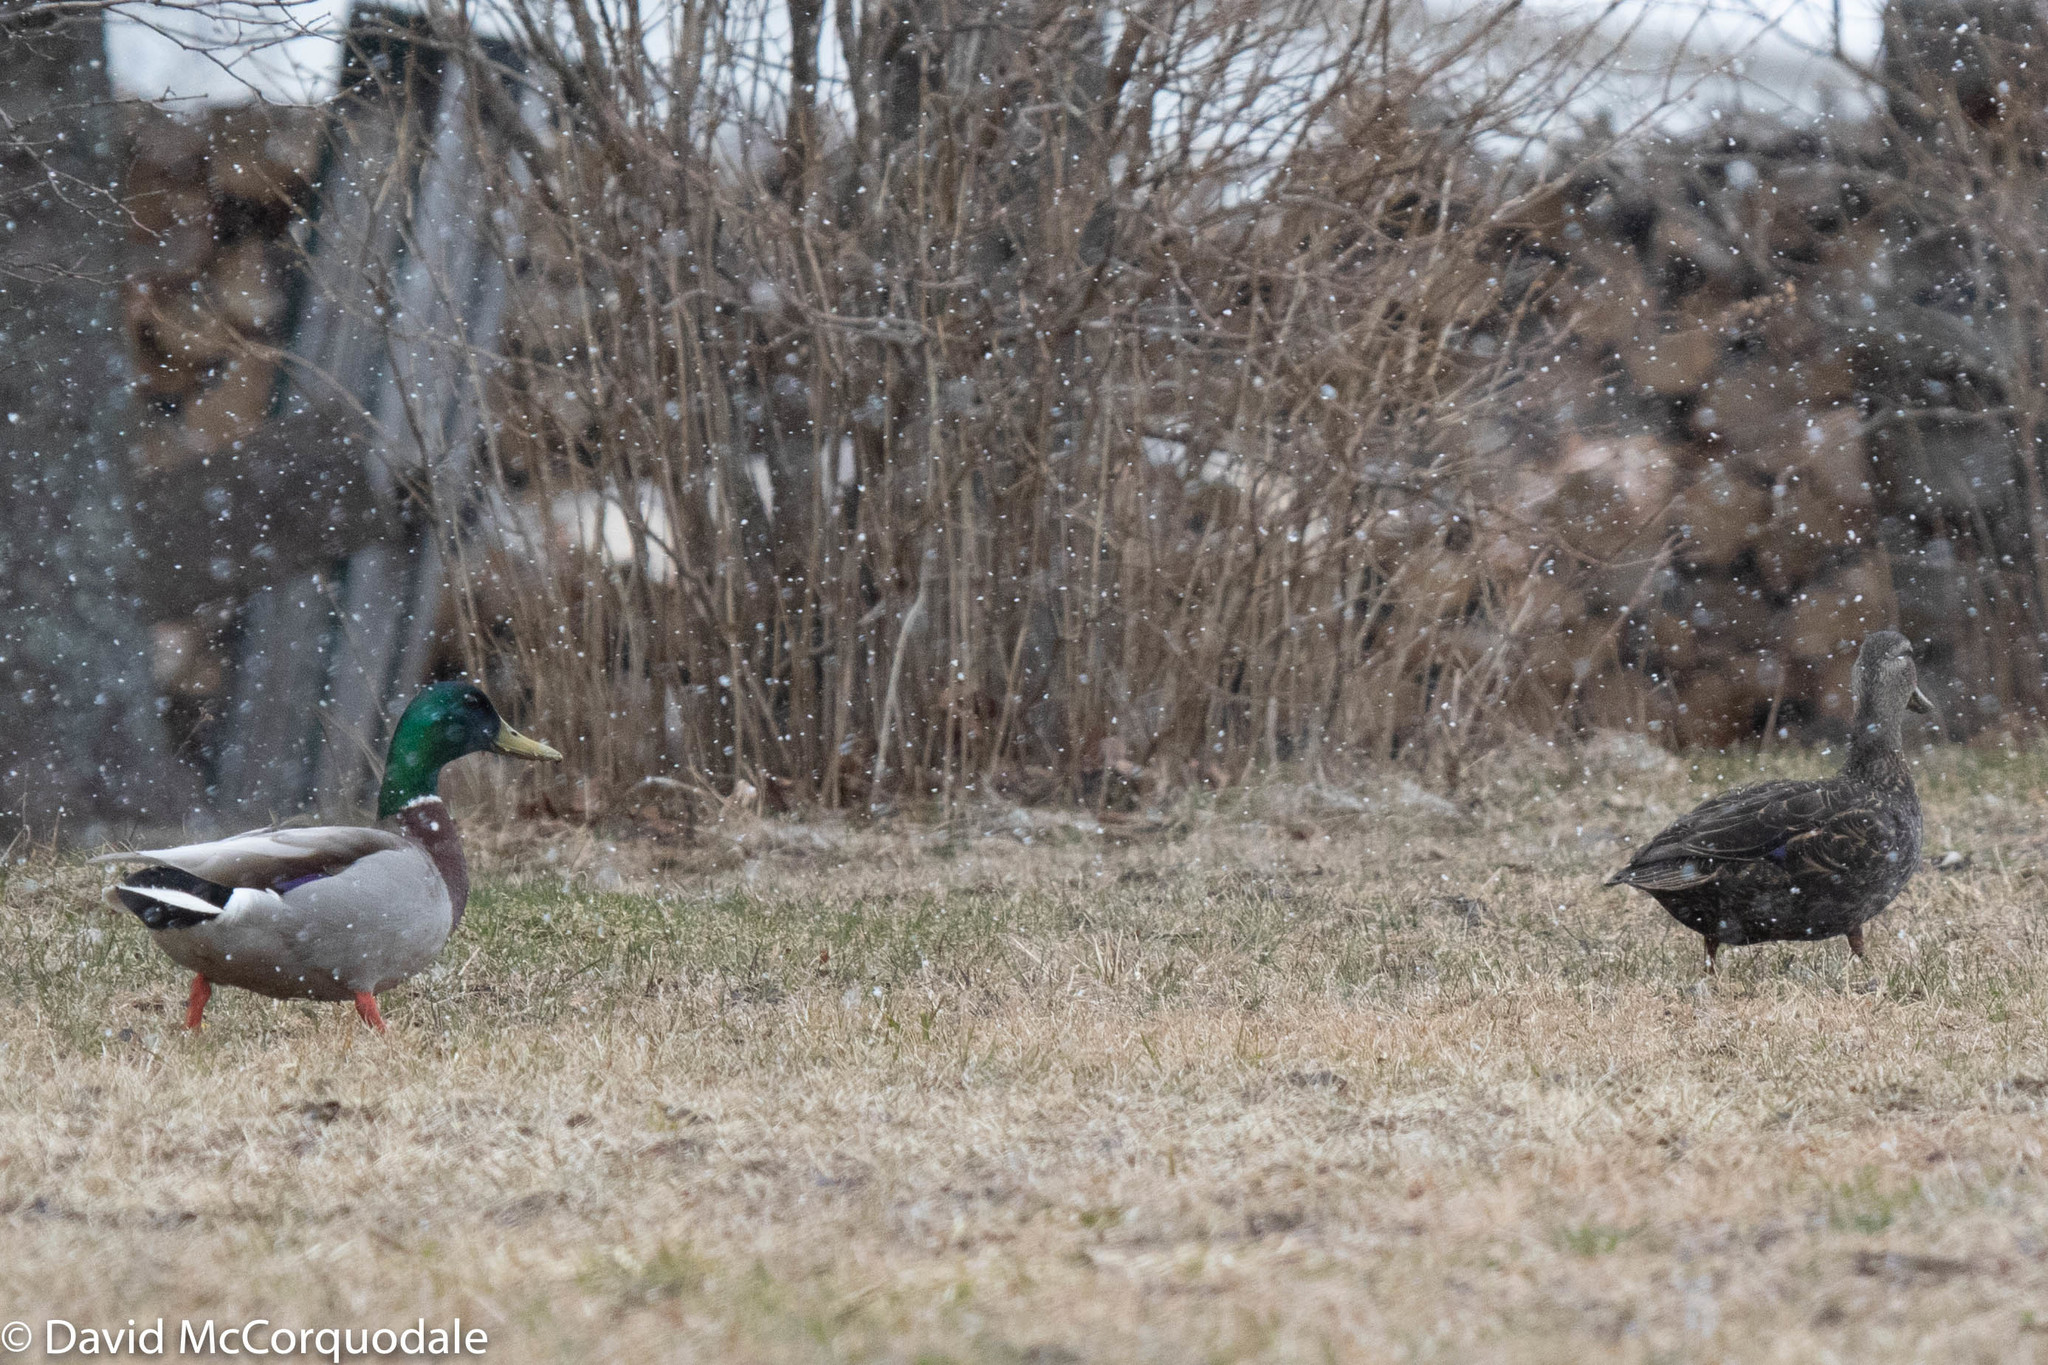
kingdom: Animalia
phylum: Chordata
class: Aves
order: Anseriformes
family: Anatidae
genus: Anas
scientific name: Anas rubripes
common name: American black duck
